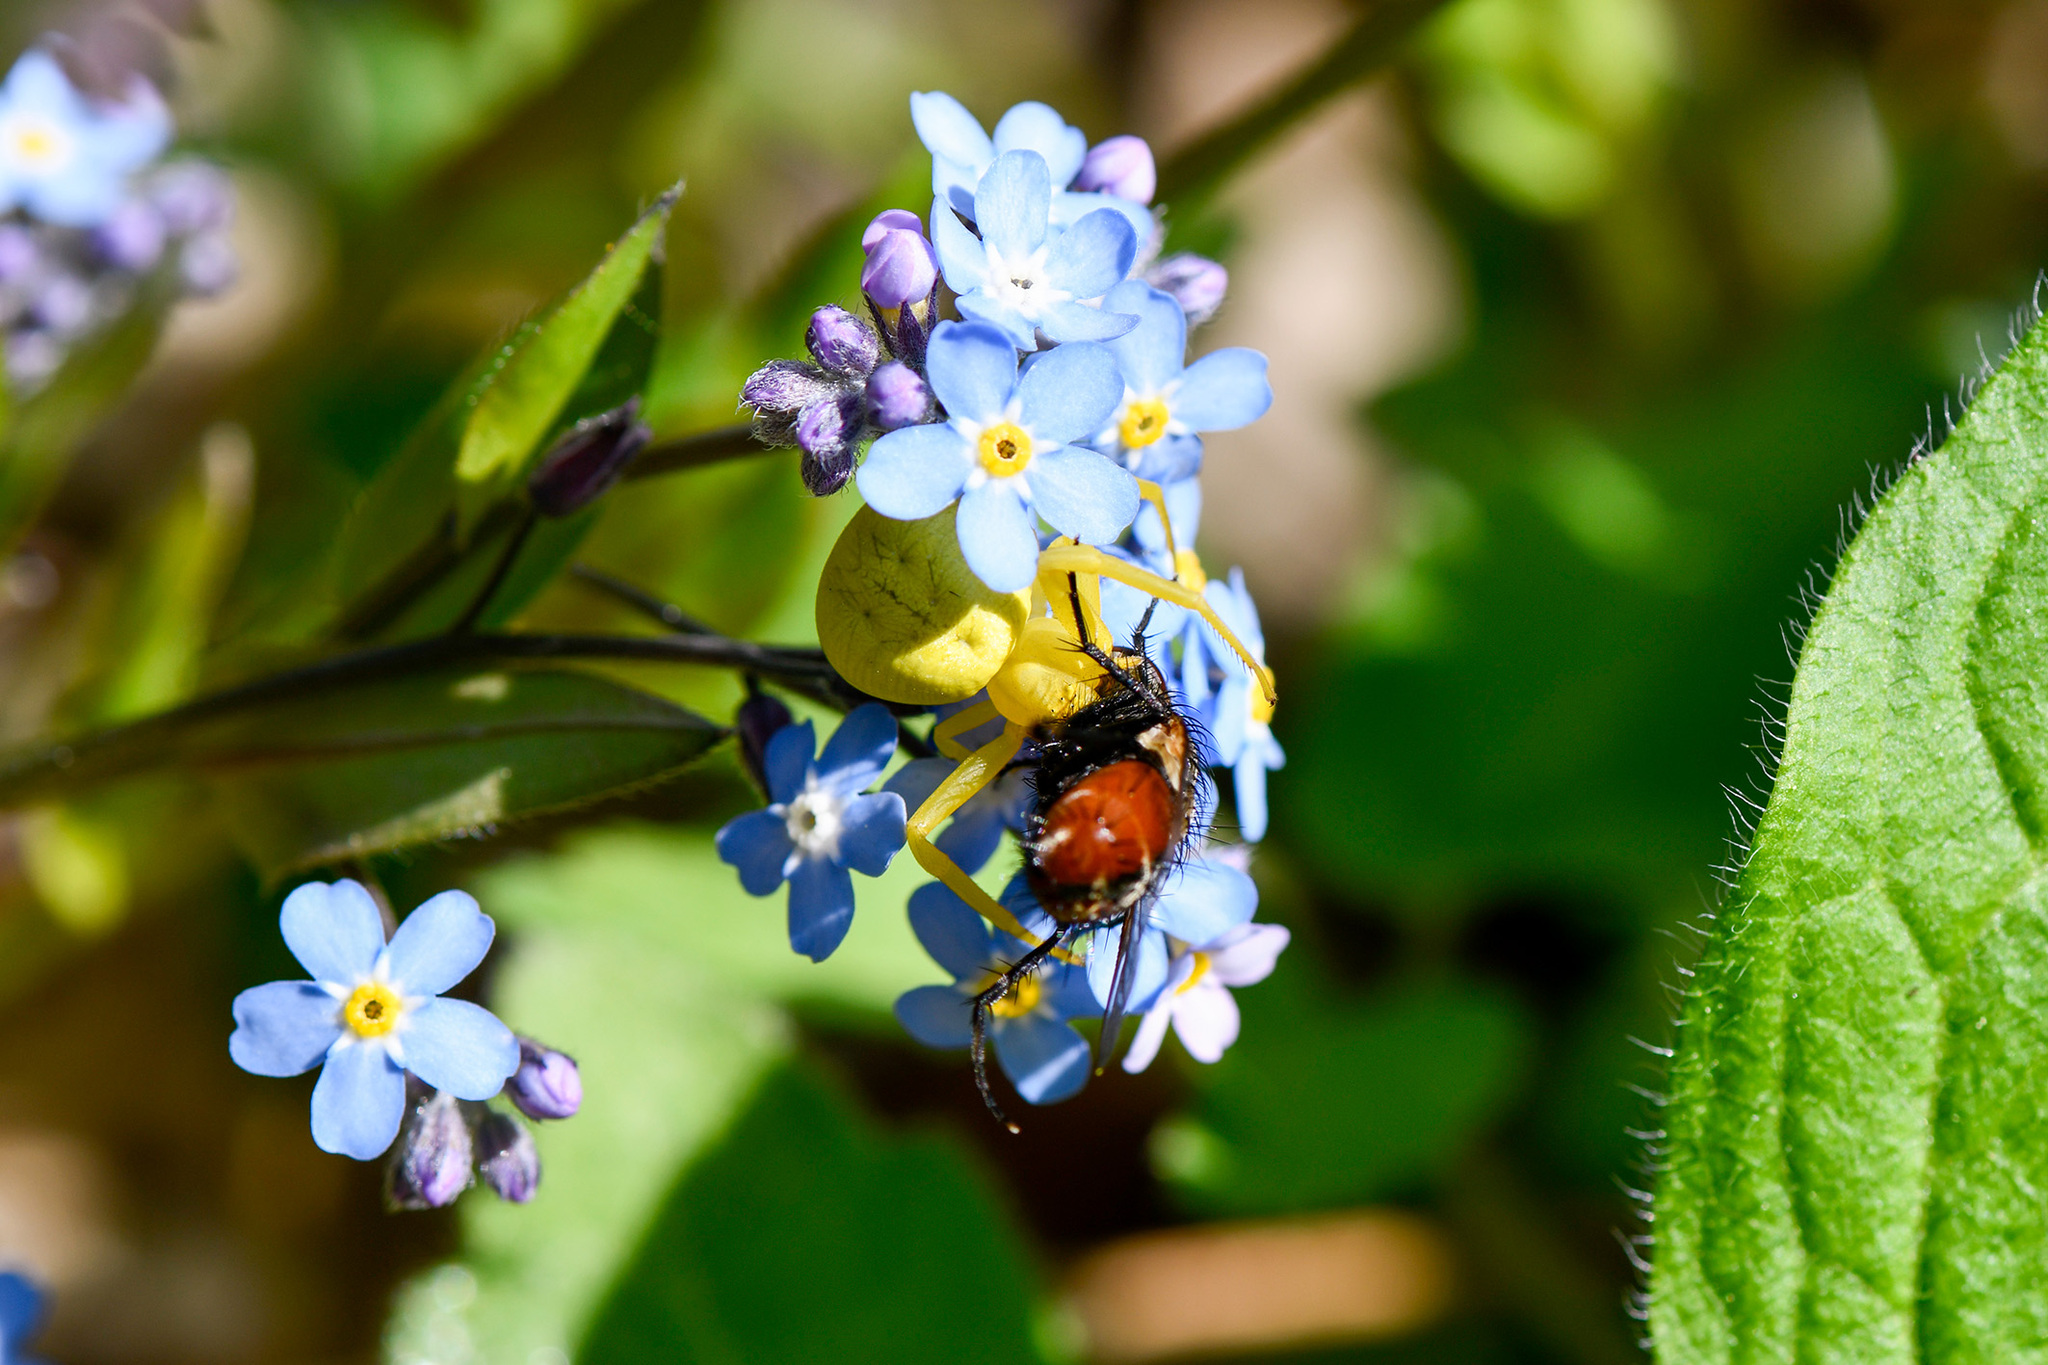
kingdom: Animalia
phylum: Arthropoda
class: Arachnida
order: Araneae
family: Thomisidae
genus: Misumena
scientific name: Misumena vatia
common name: Goldenrod crab spider
